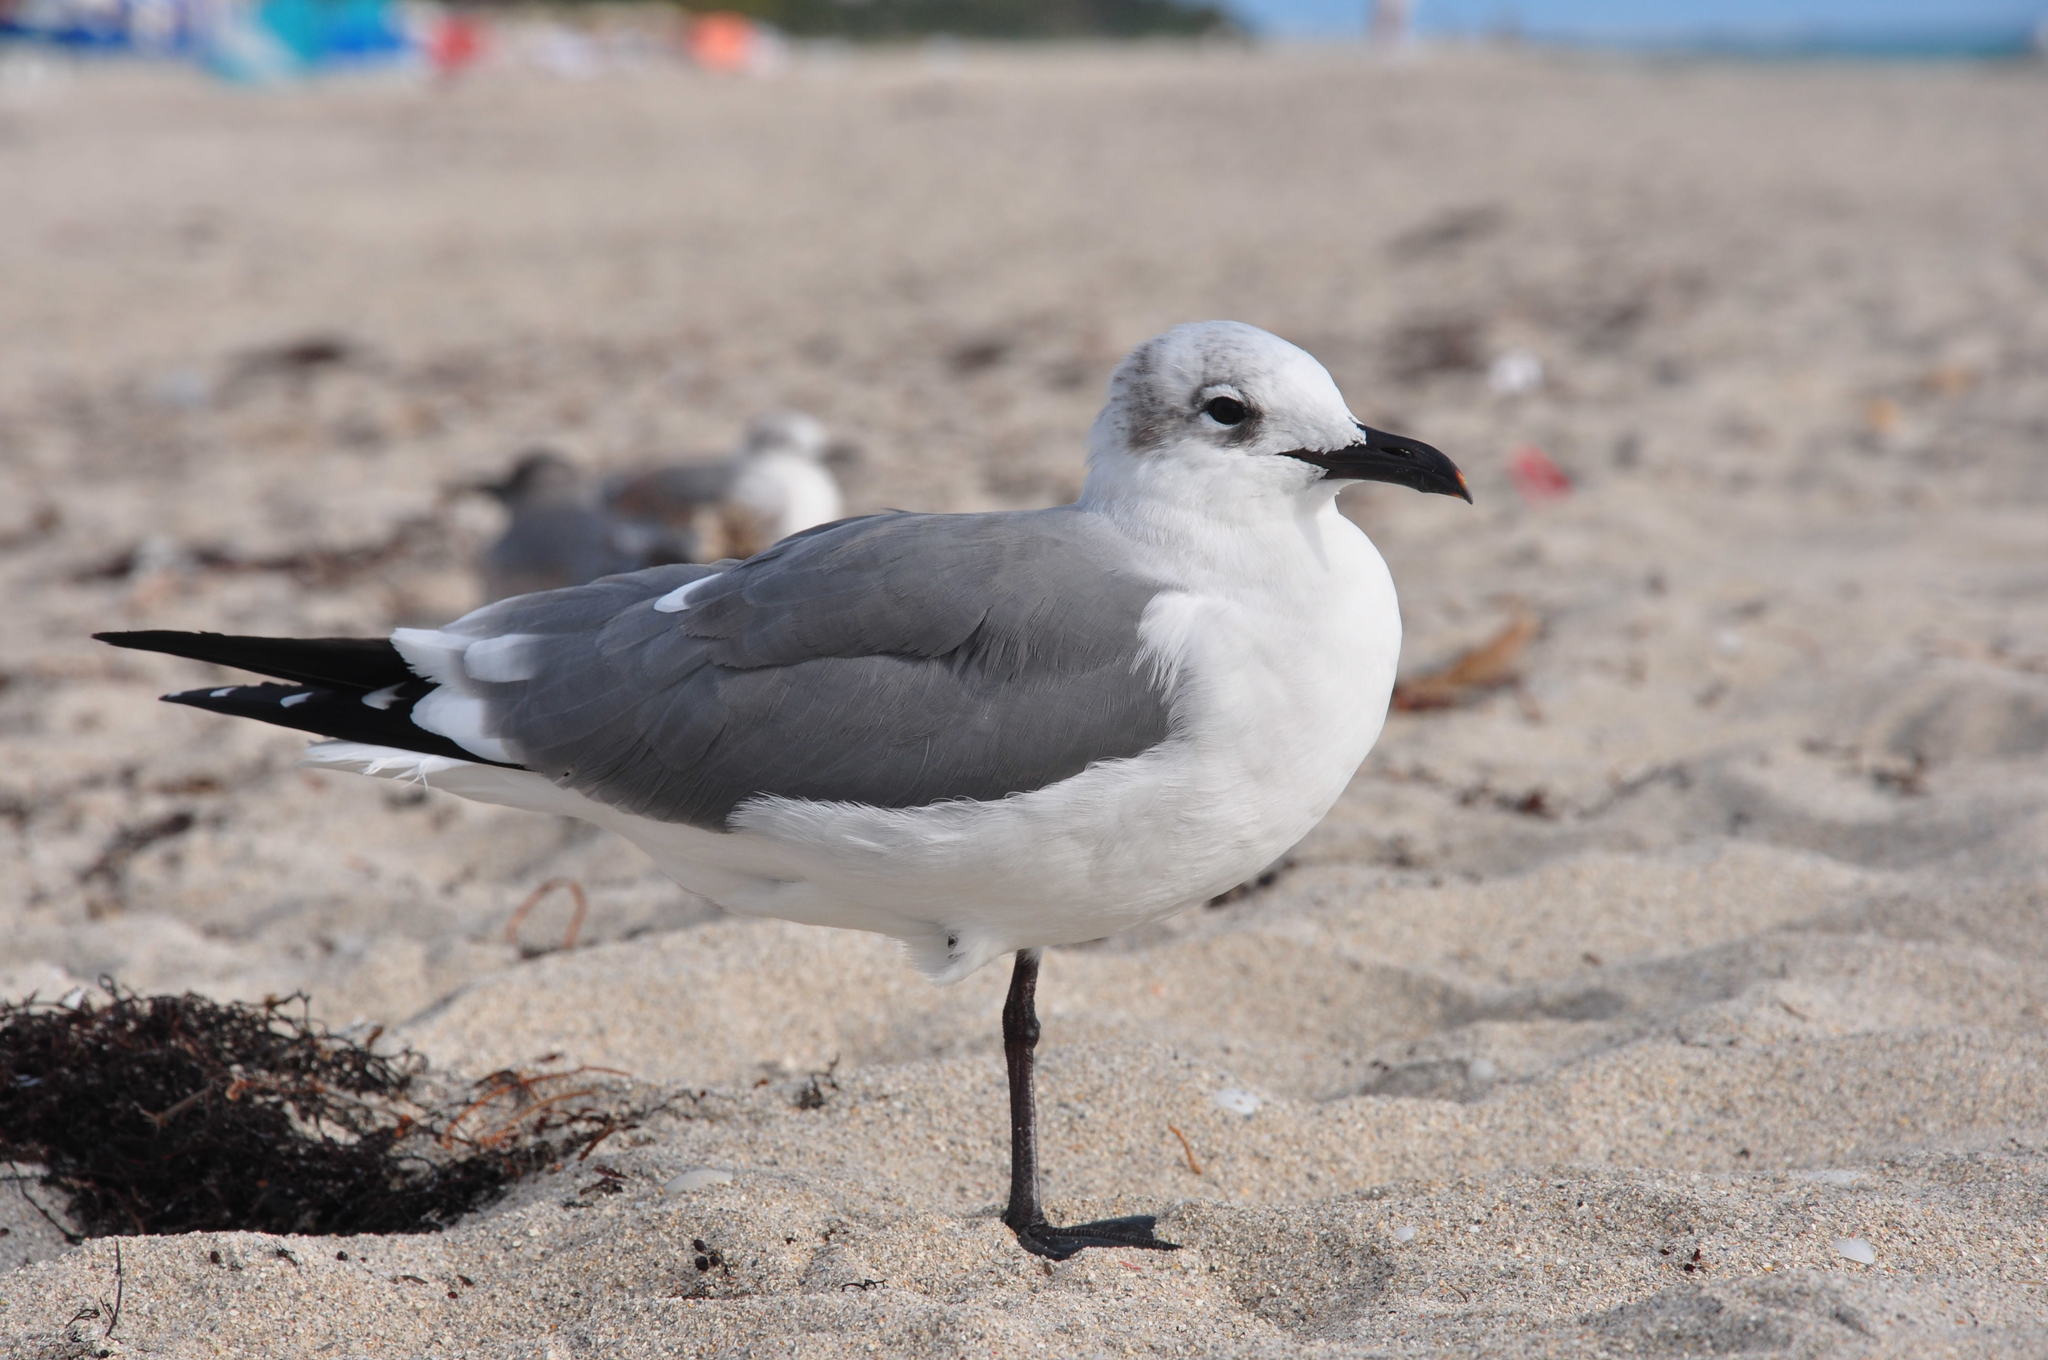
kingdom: Animalia
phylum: Chordata
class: Aves
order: Charadriiformes
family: Laridae
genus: Leucophaeus
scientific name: Leucophaeus atricilla
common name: Laughing gull
